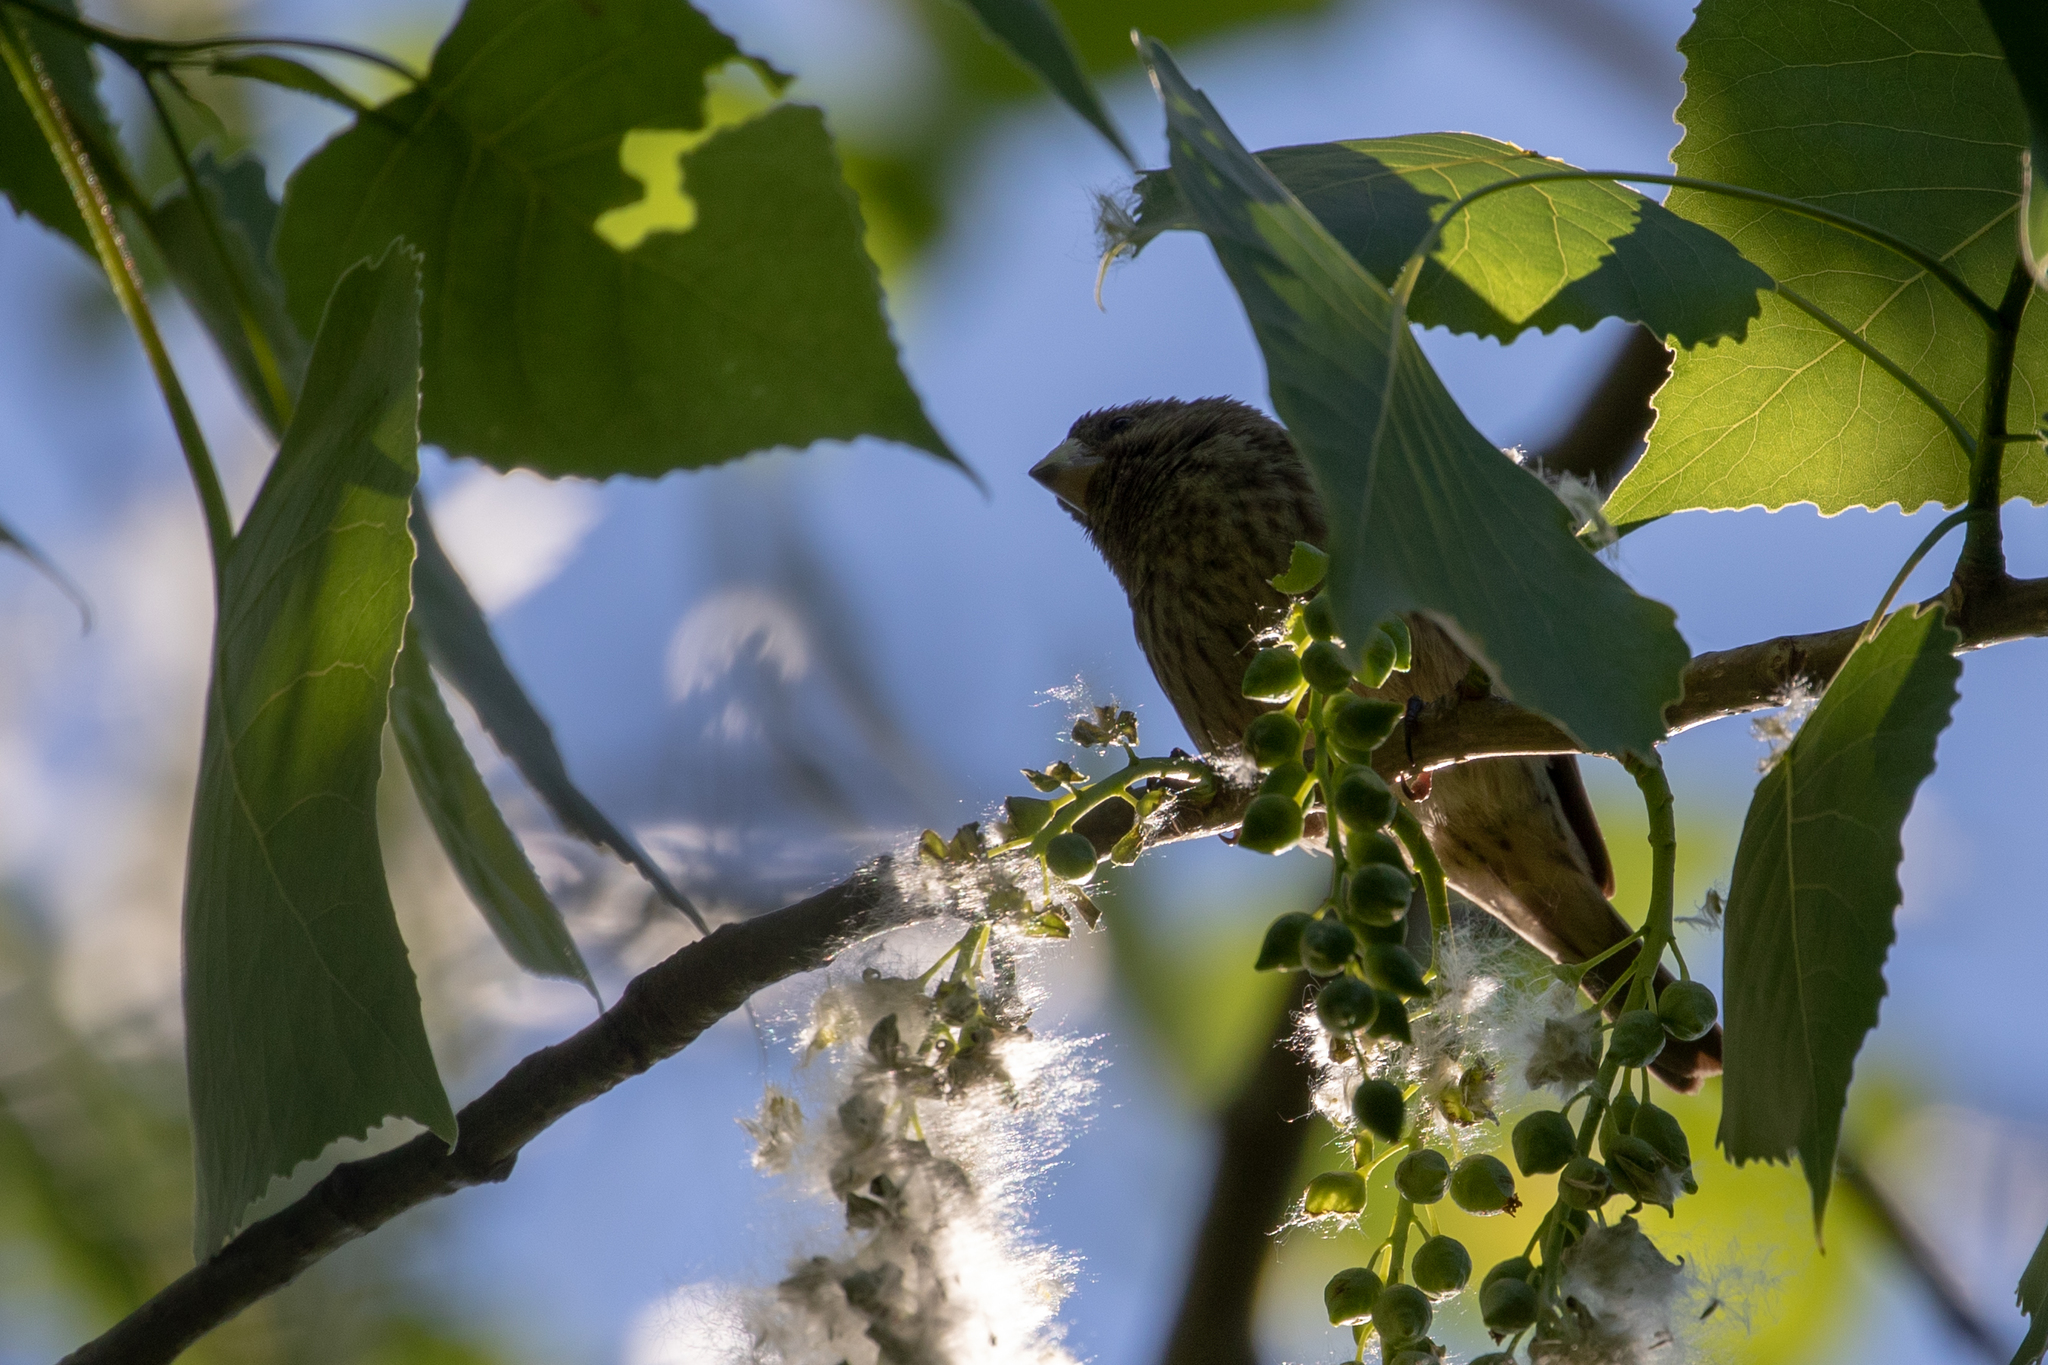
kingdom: Animalia
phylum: Chordata
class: Aves
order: Passeriformes
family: Fringillidae
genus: Haemorhous
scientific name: Haemorhous mexicanus
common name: House finch
